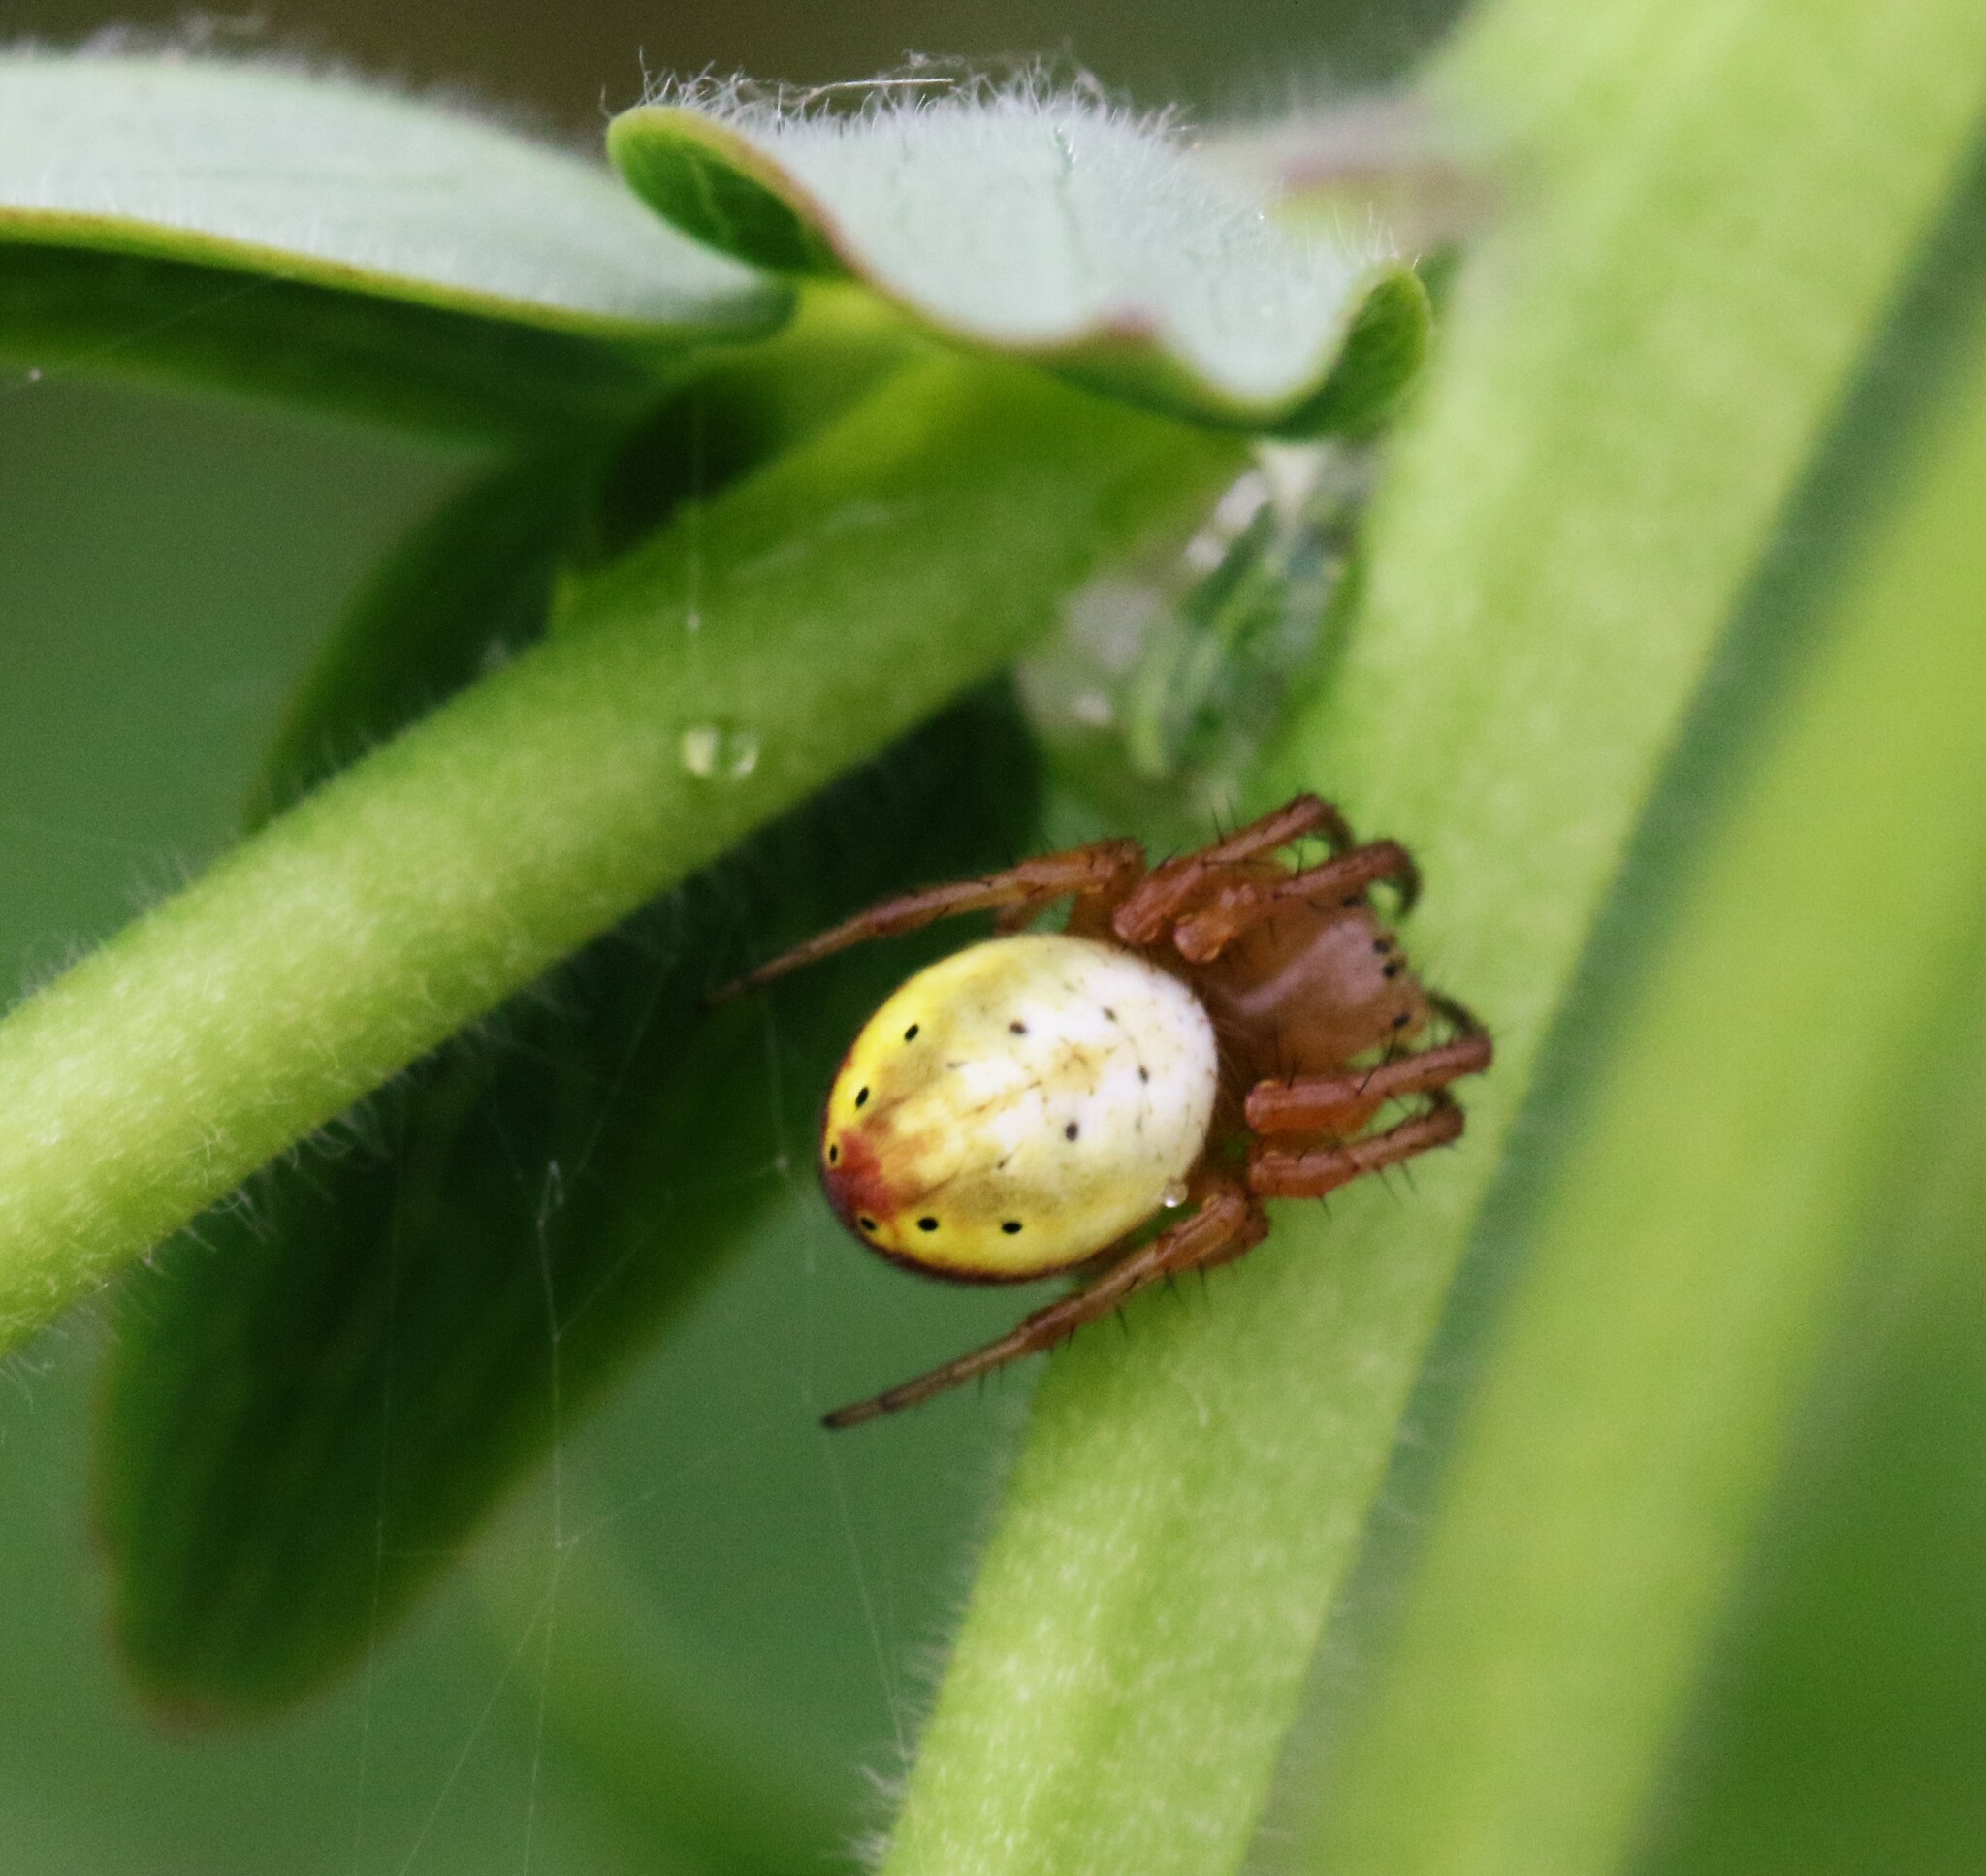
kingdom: Animalia
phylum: Arthropoda
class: Arachnida
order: Araneae
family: Araneidae
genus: Araniella
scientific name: Araniella displicata
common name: Sixspotted orb weaver
